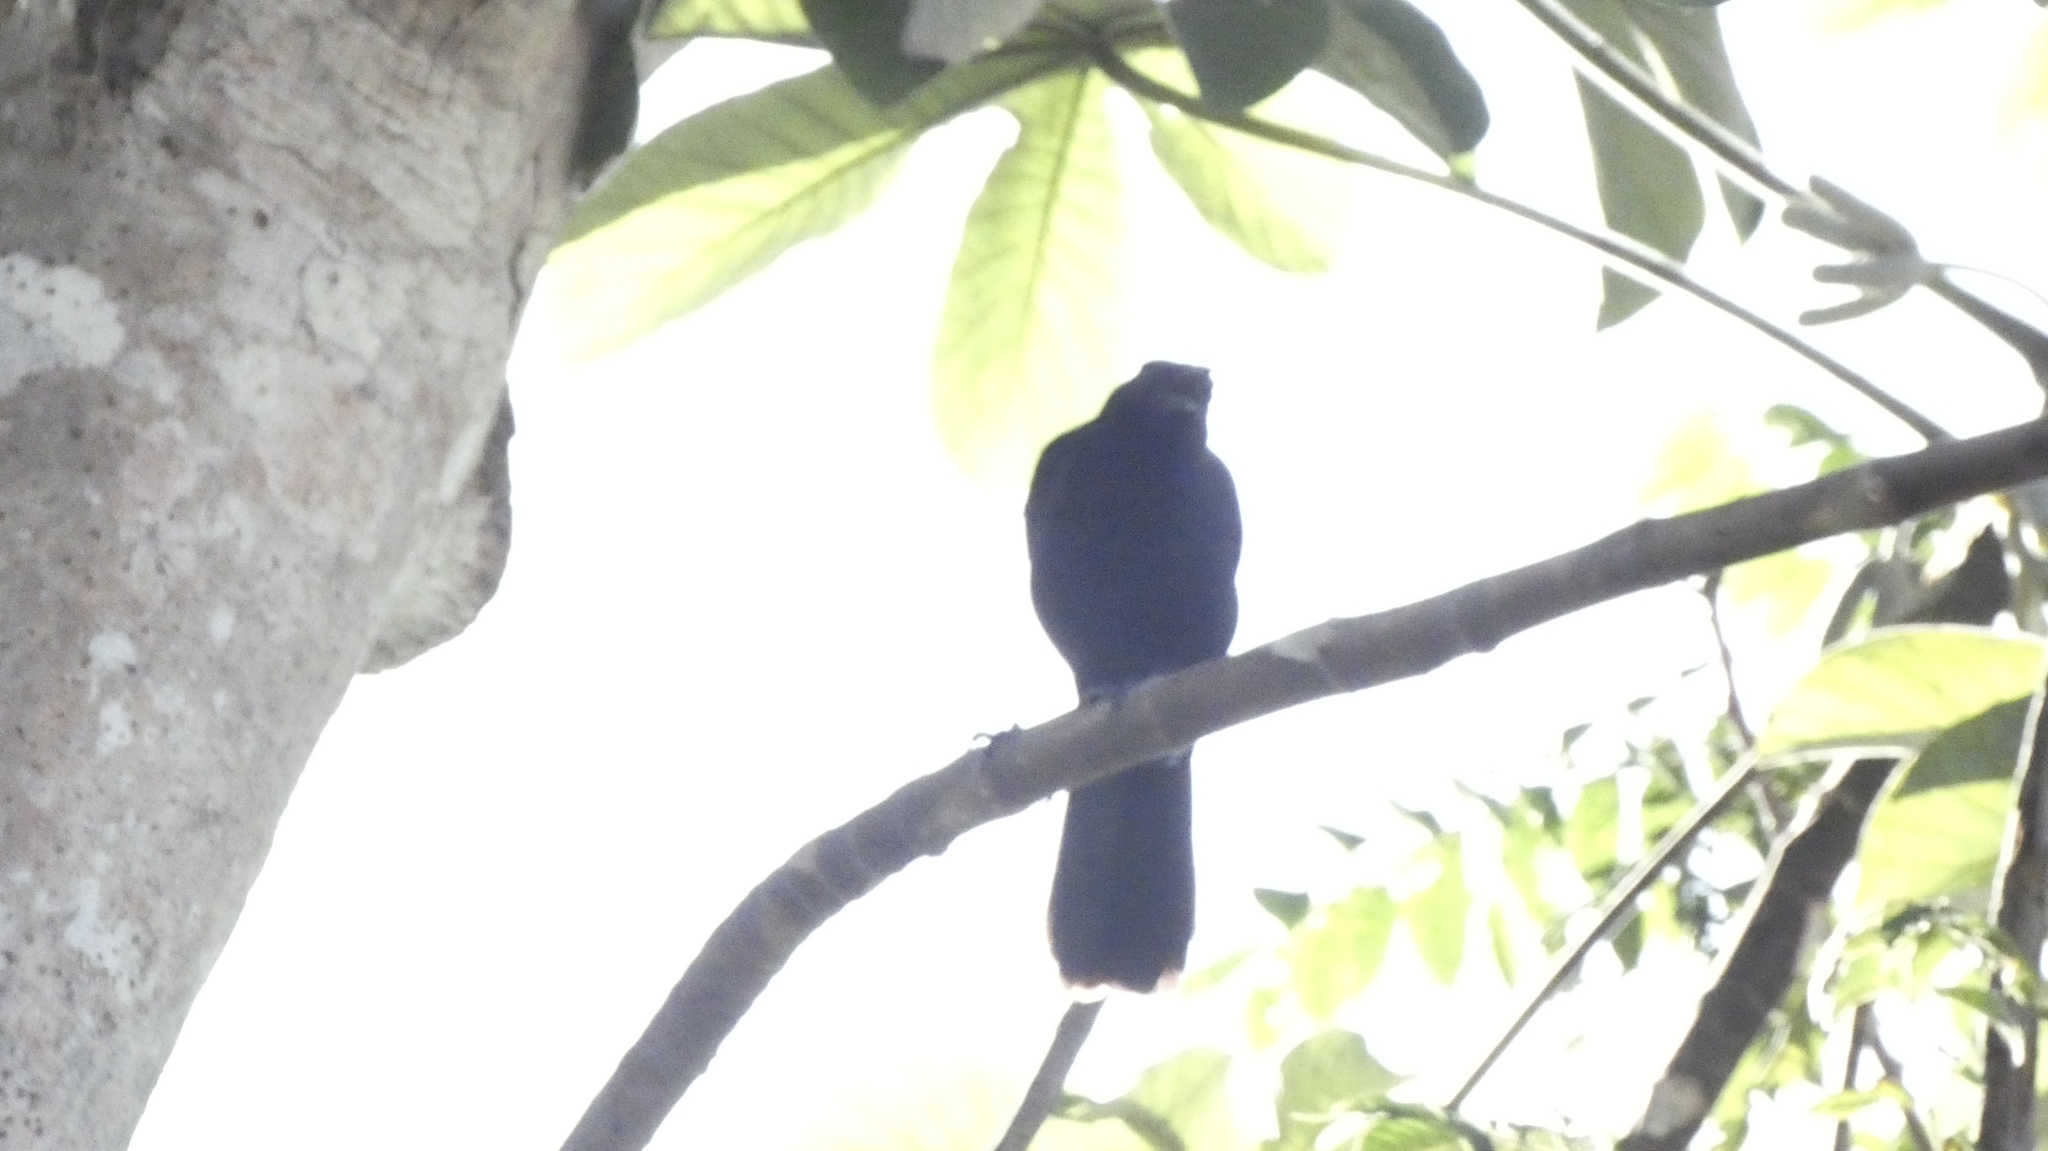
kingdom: Animalia
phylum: Chordata
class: Aves
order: Passeriformes
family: Icteridae
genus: Dives
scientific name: Dives dives
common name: Melodious blackbird
